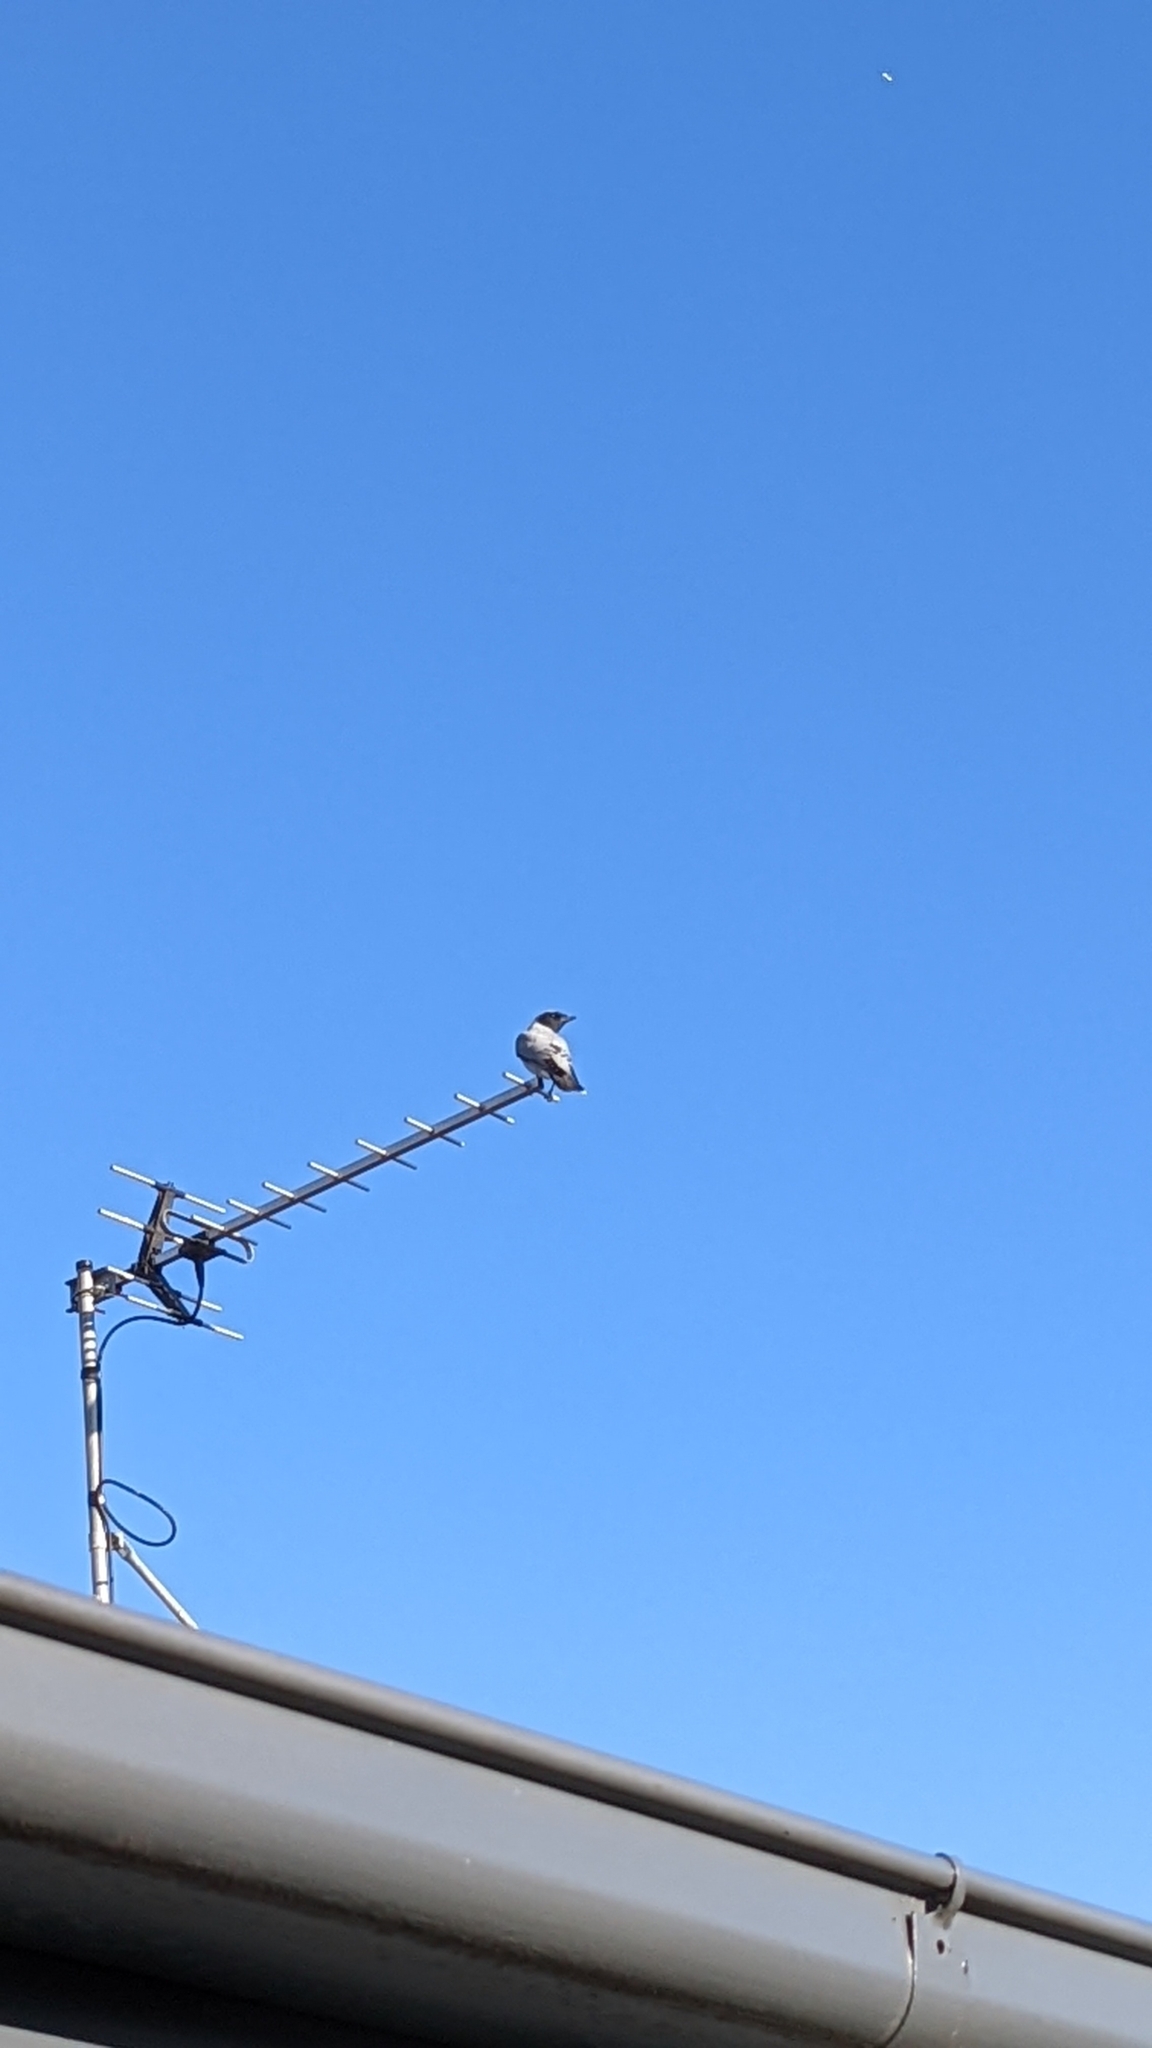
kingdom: Animalia
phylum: Chordata
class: Aves
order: Passeriformes
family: Campephagidae
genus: Coracina
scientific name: Coracina novaehollandiae
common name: Black-faced cuckooshrike
